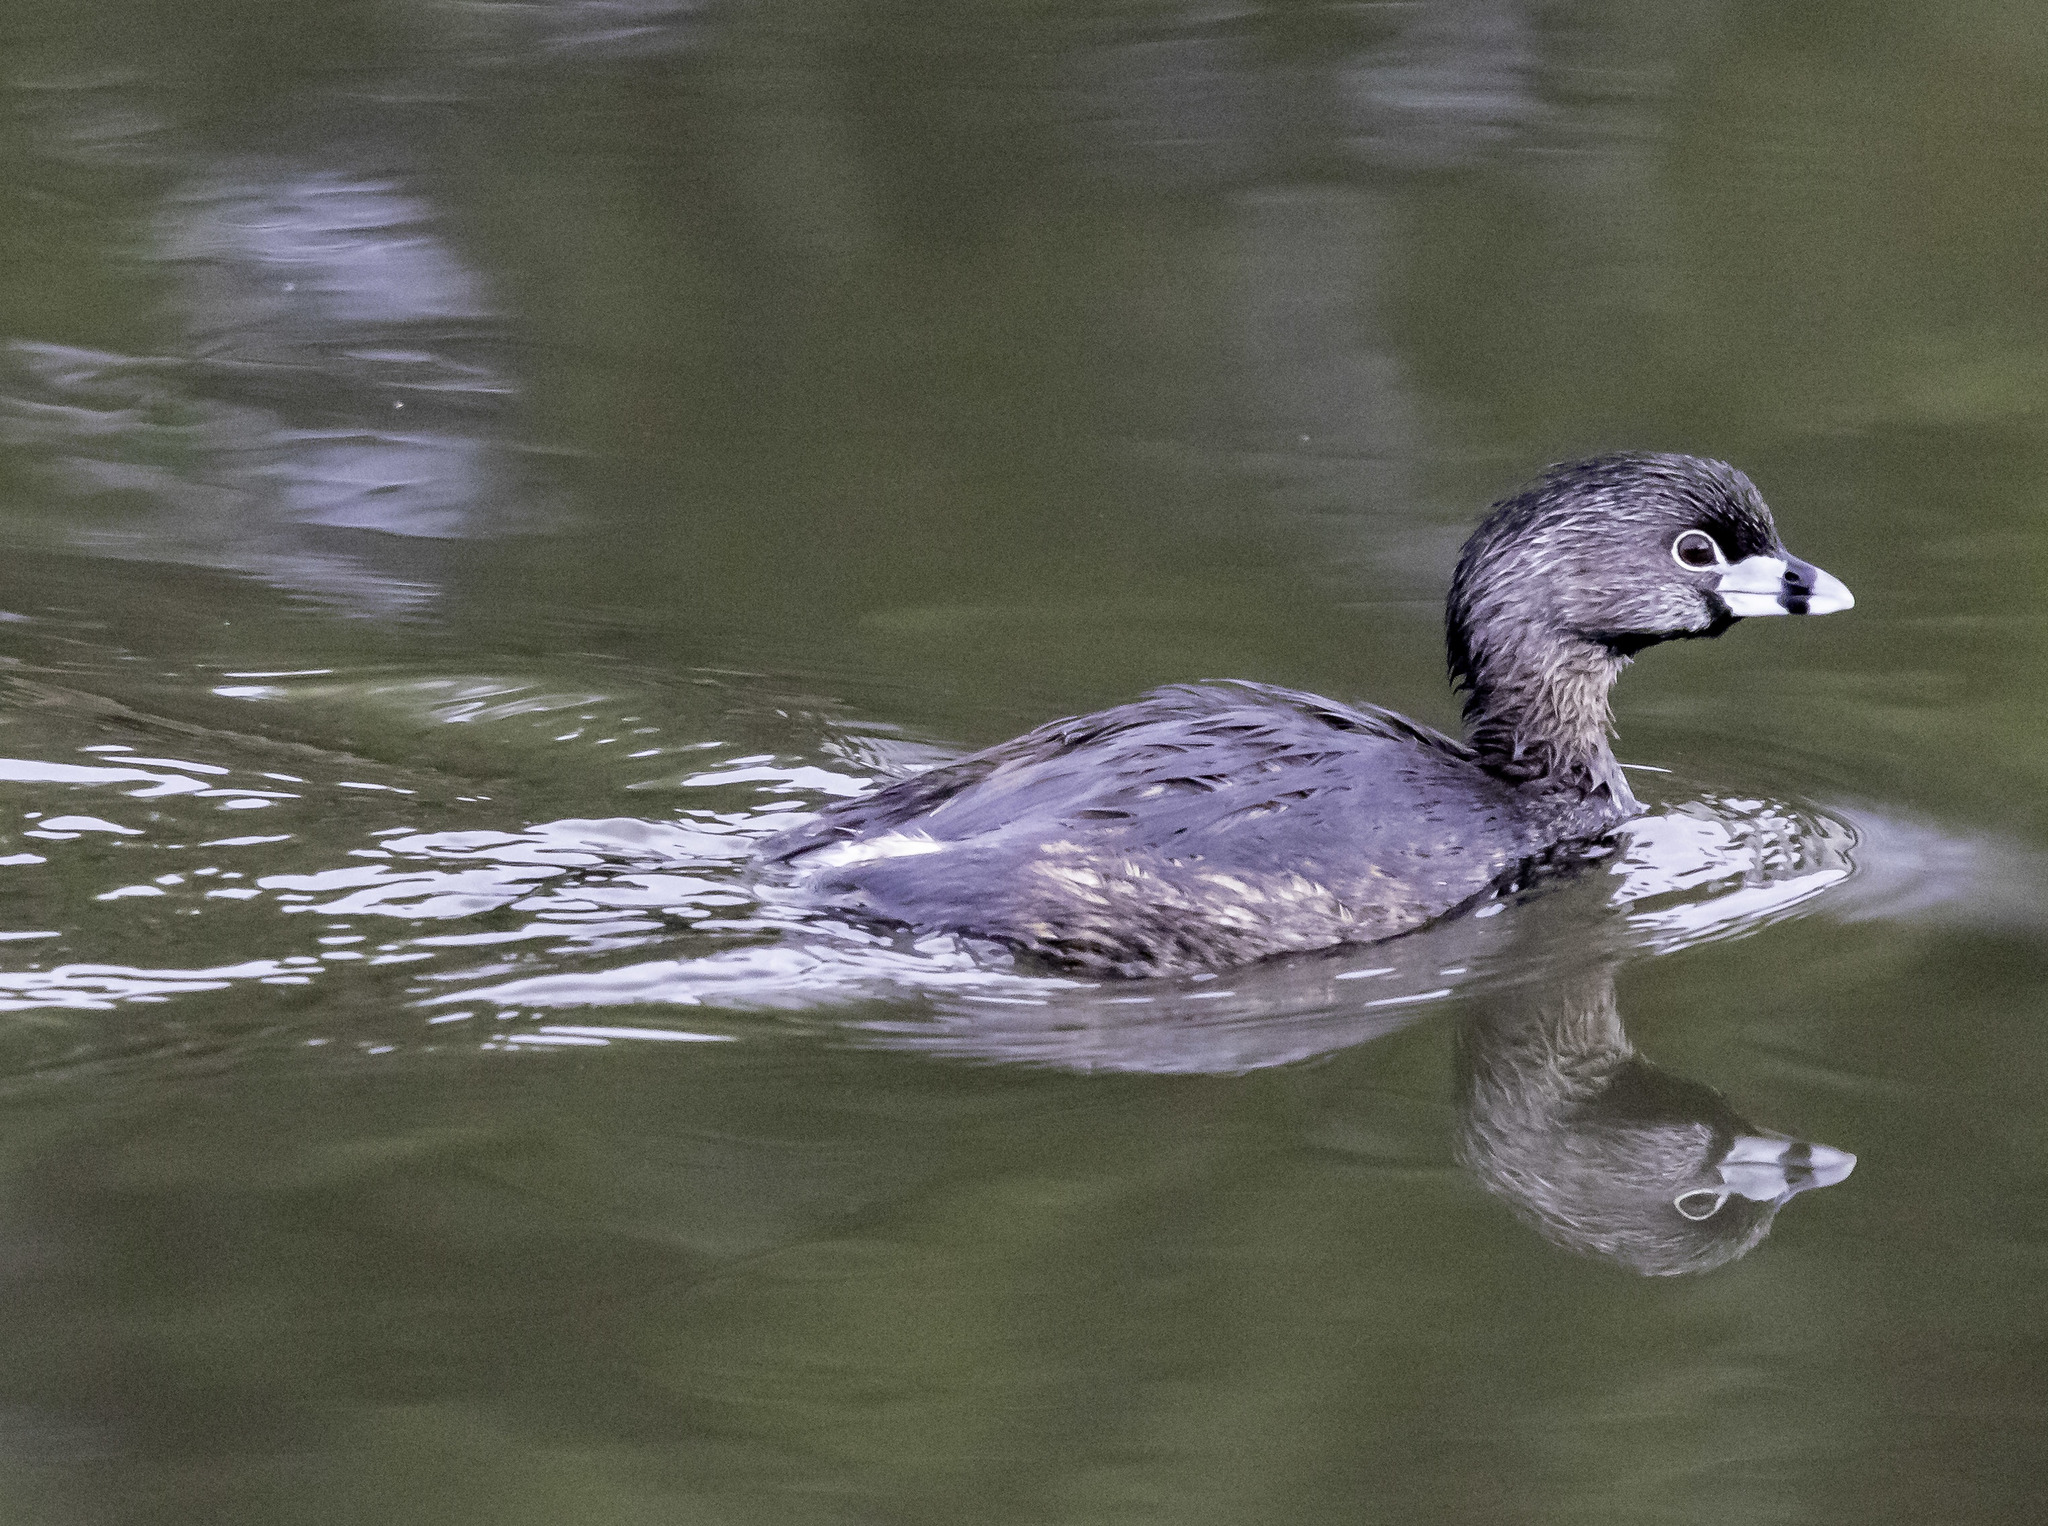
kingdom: Animalia
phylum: Chordata
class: Aves
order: Podicipediformes
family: Podicipedidae
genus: Podilymbus
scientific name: Podilymbus podiceps
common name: Pied-billed grebe
